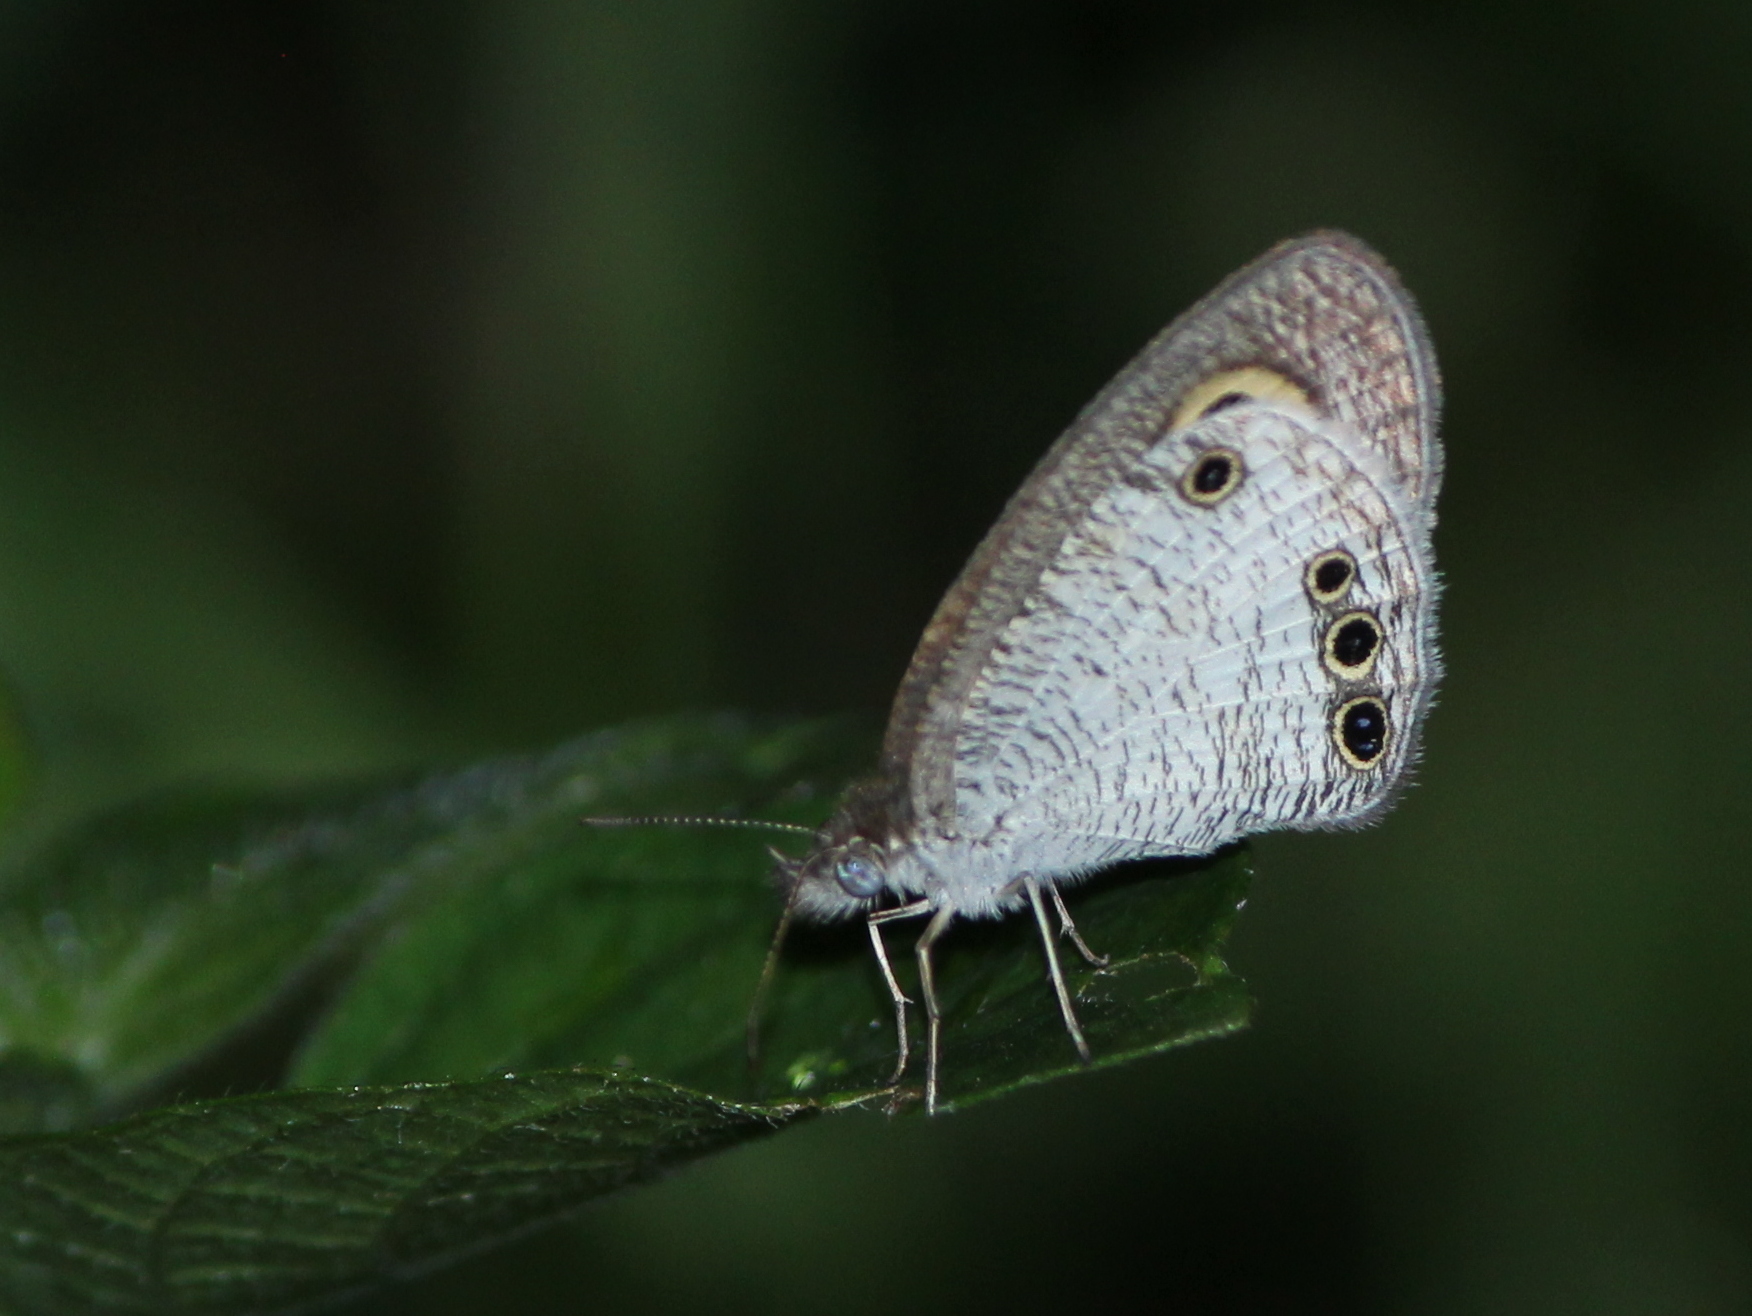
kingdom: Animalia
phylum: Arthropoda
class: Insecta
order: Lepidoptera
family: Nymphalidae
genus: Ypthima
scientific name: Ypthima ceylonica
